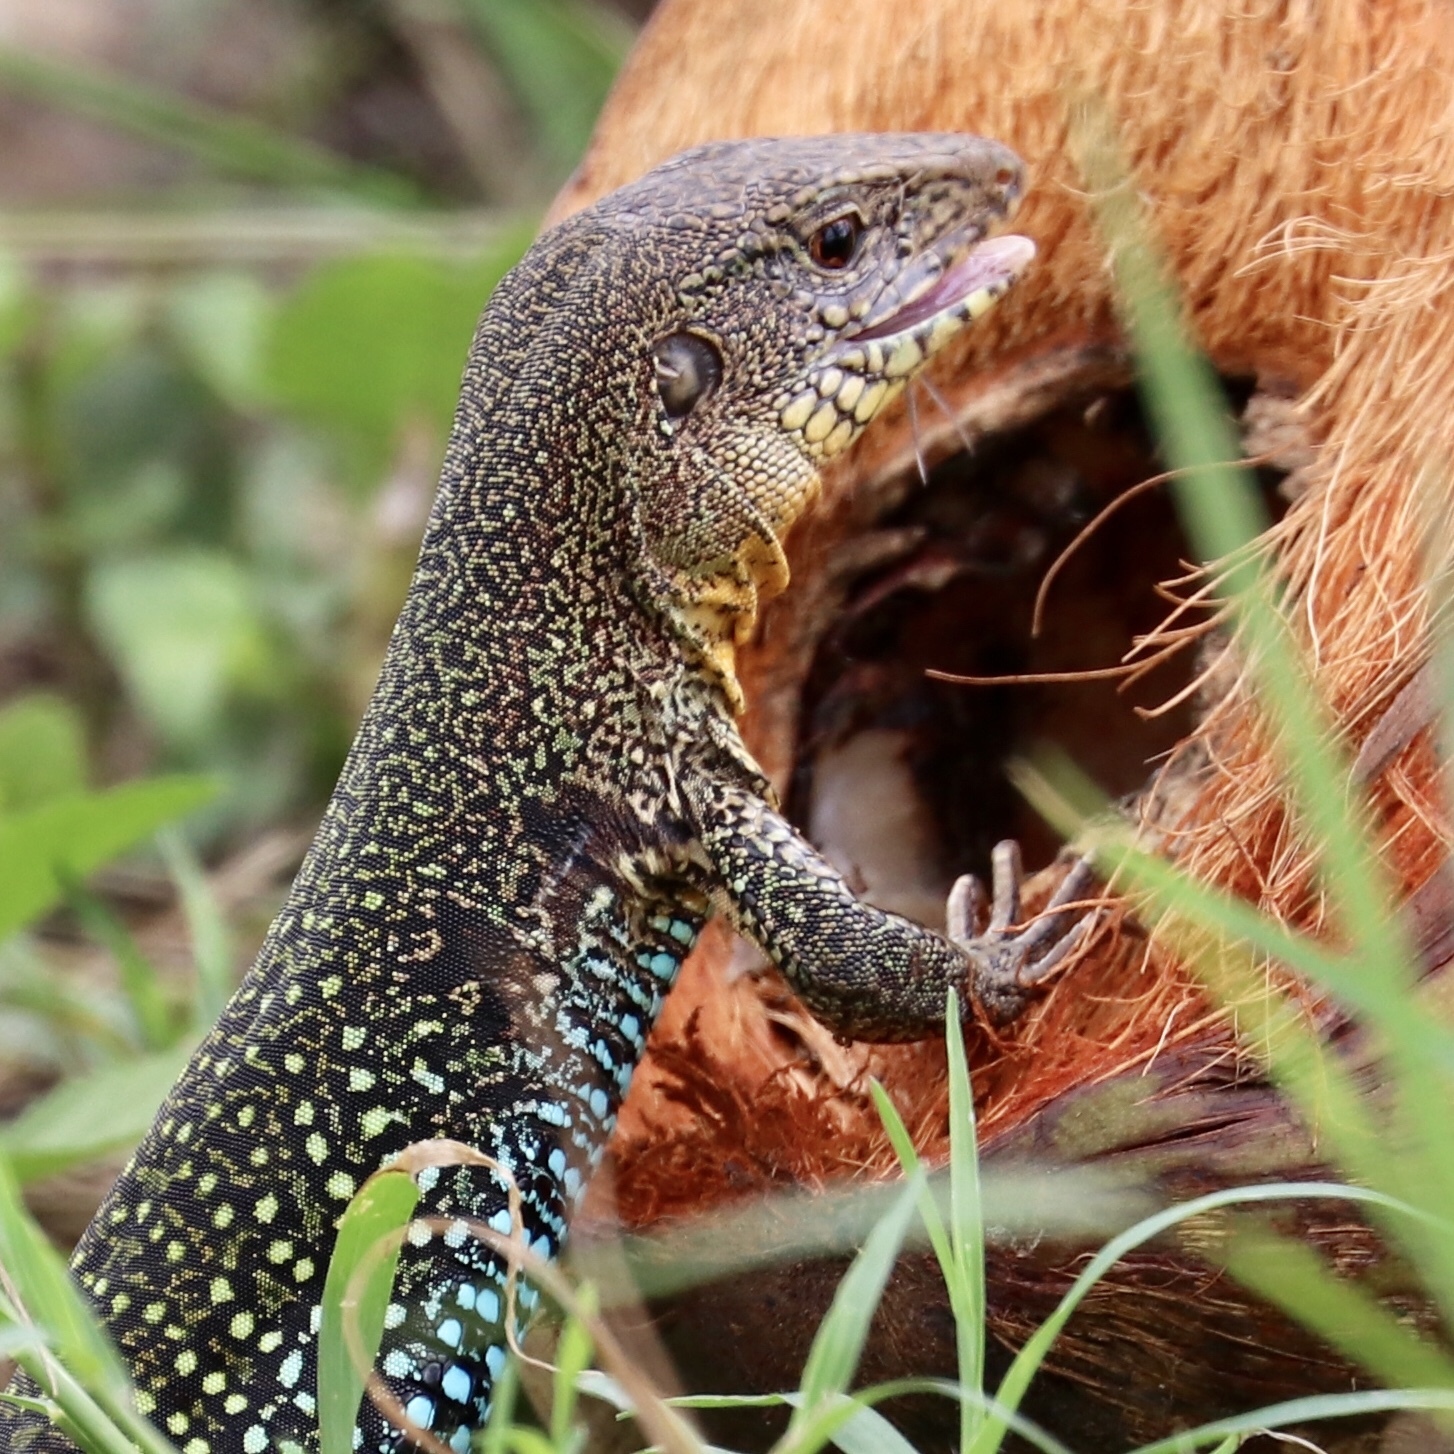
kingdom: Animalia
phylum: Chordata
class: Squamata
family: Teiidae
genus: Ameiva
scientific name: Ameiva praesignis
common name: Giant ameiva
